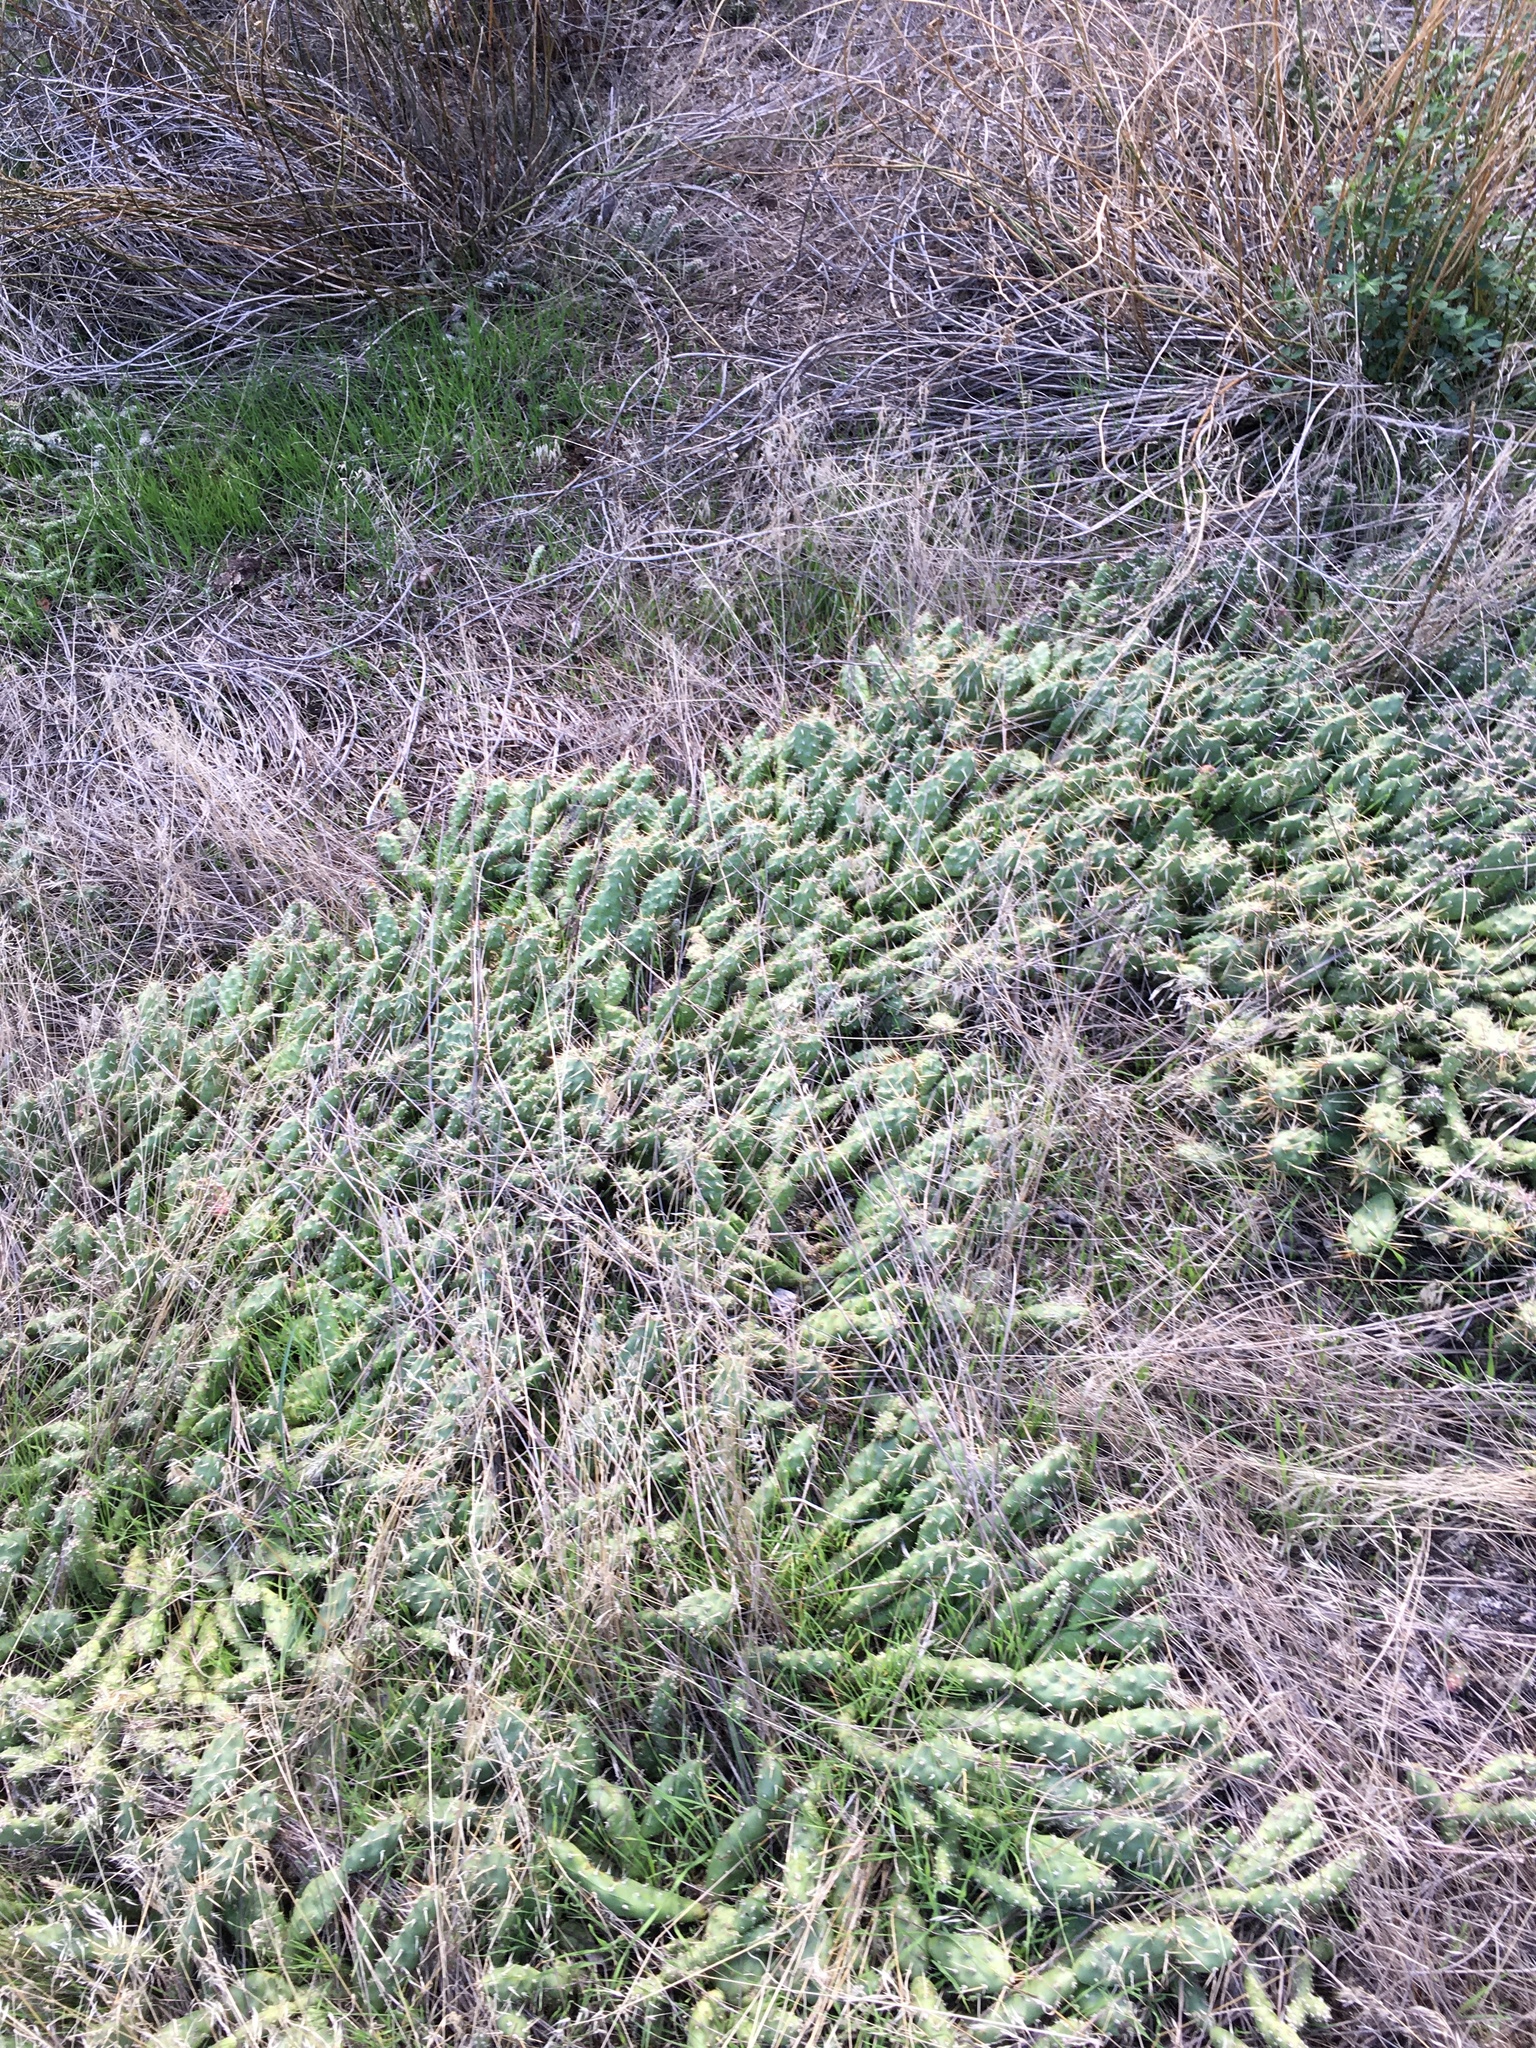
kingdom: Plantae
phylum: Tracheophyta
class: Magnoliopsida
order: Caryophyllales
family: Cactaceae
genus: Opuntia
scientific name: Opuntia fragilis
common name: Brittle cactus
